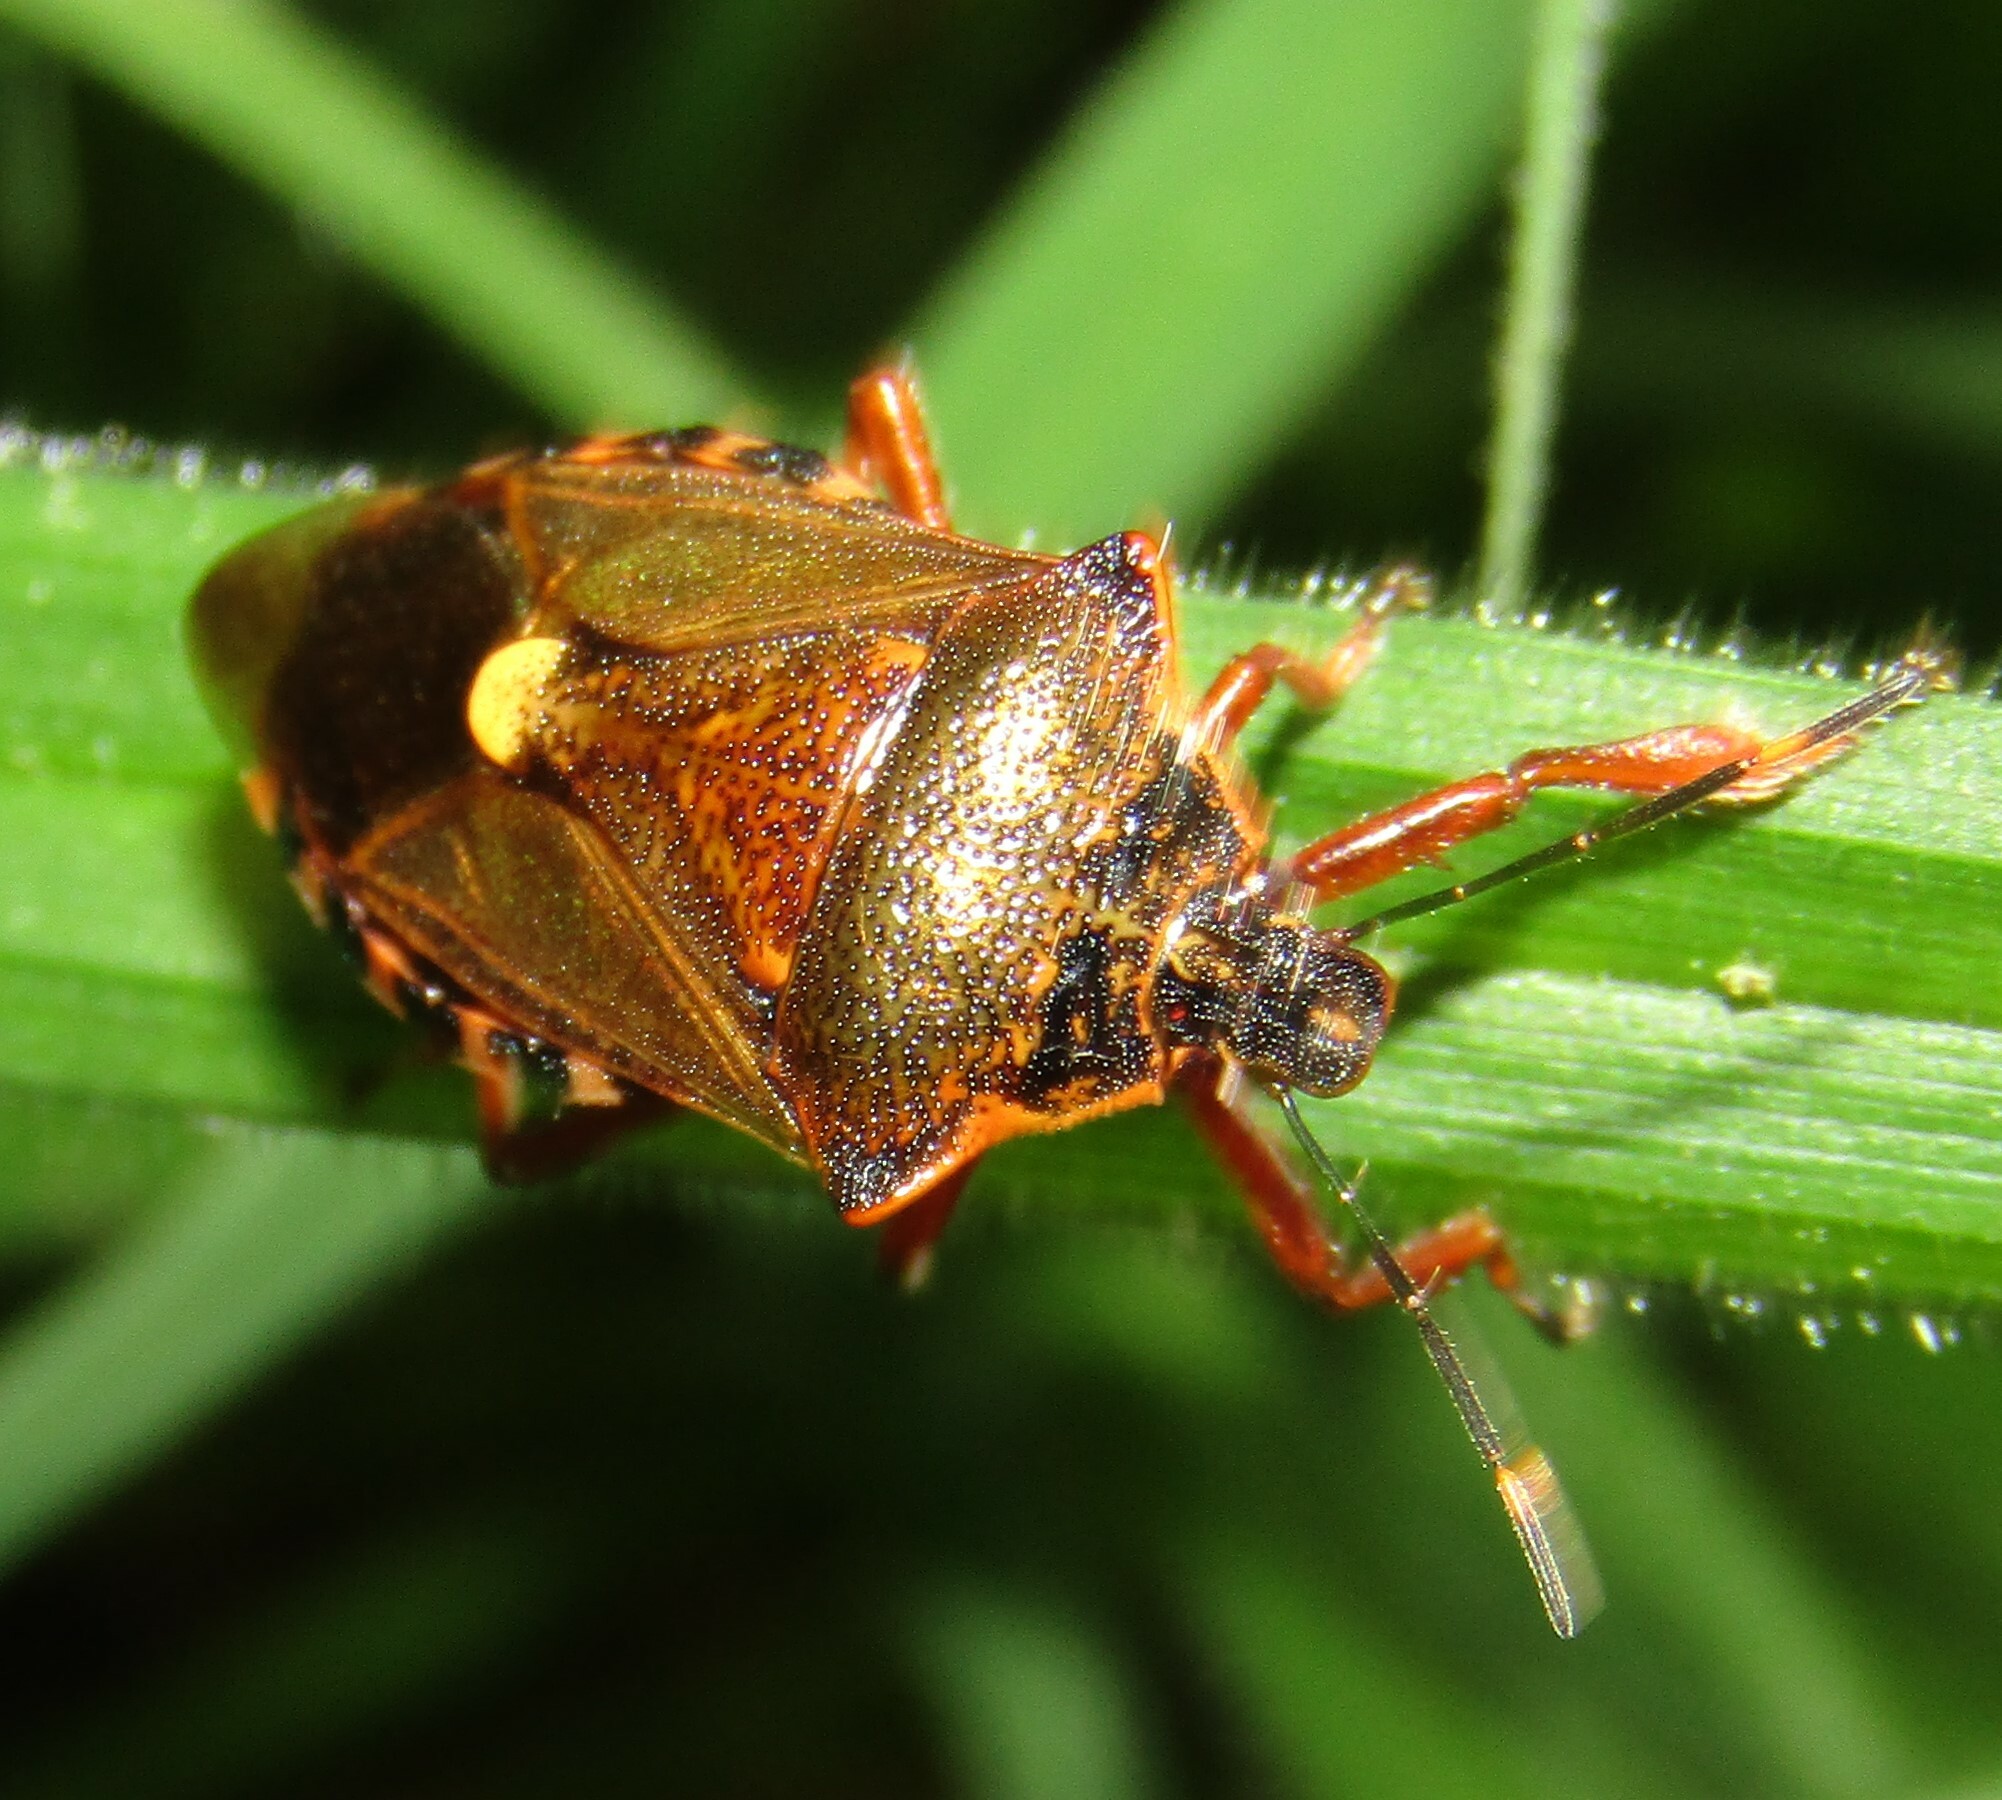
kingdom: Animalia
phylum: Arthropoda
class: Insecta
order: Hemiptera
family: Pentatomidae
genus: Pinthaeus
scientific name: Pinthaeus sanguinipes
